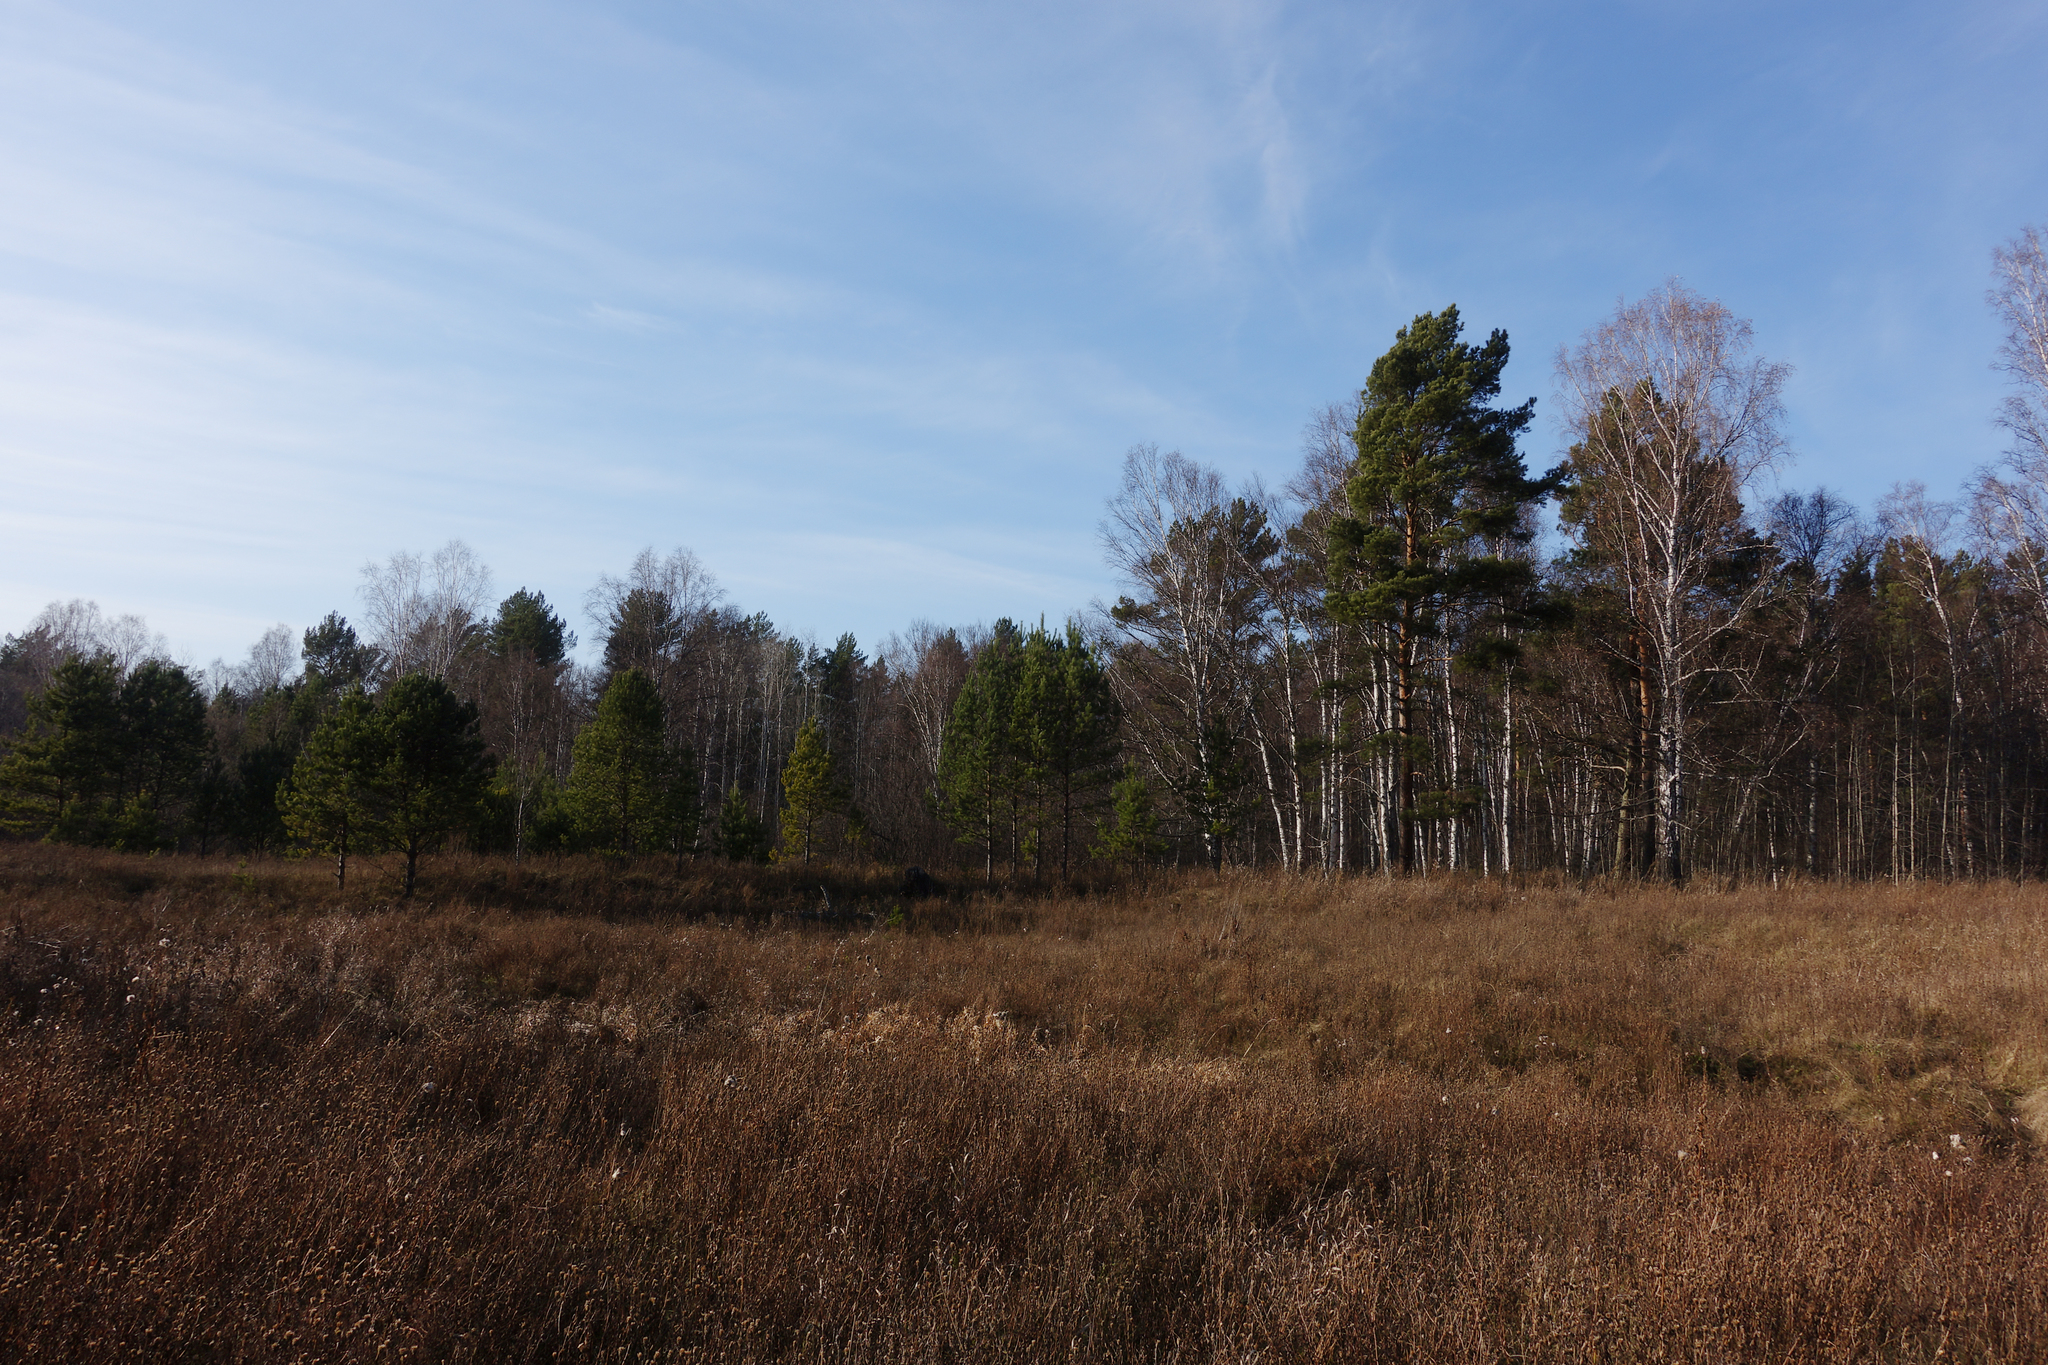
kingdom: Plantae
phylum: Tracheophyta
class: Pinopsida
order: Pinales
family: Pinaceae
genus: Pinus
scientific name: Pinus sylvestris
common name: Scots pine
